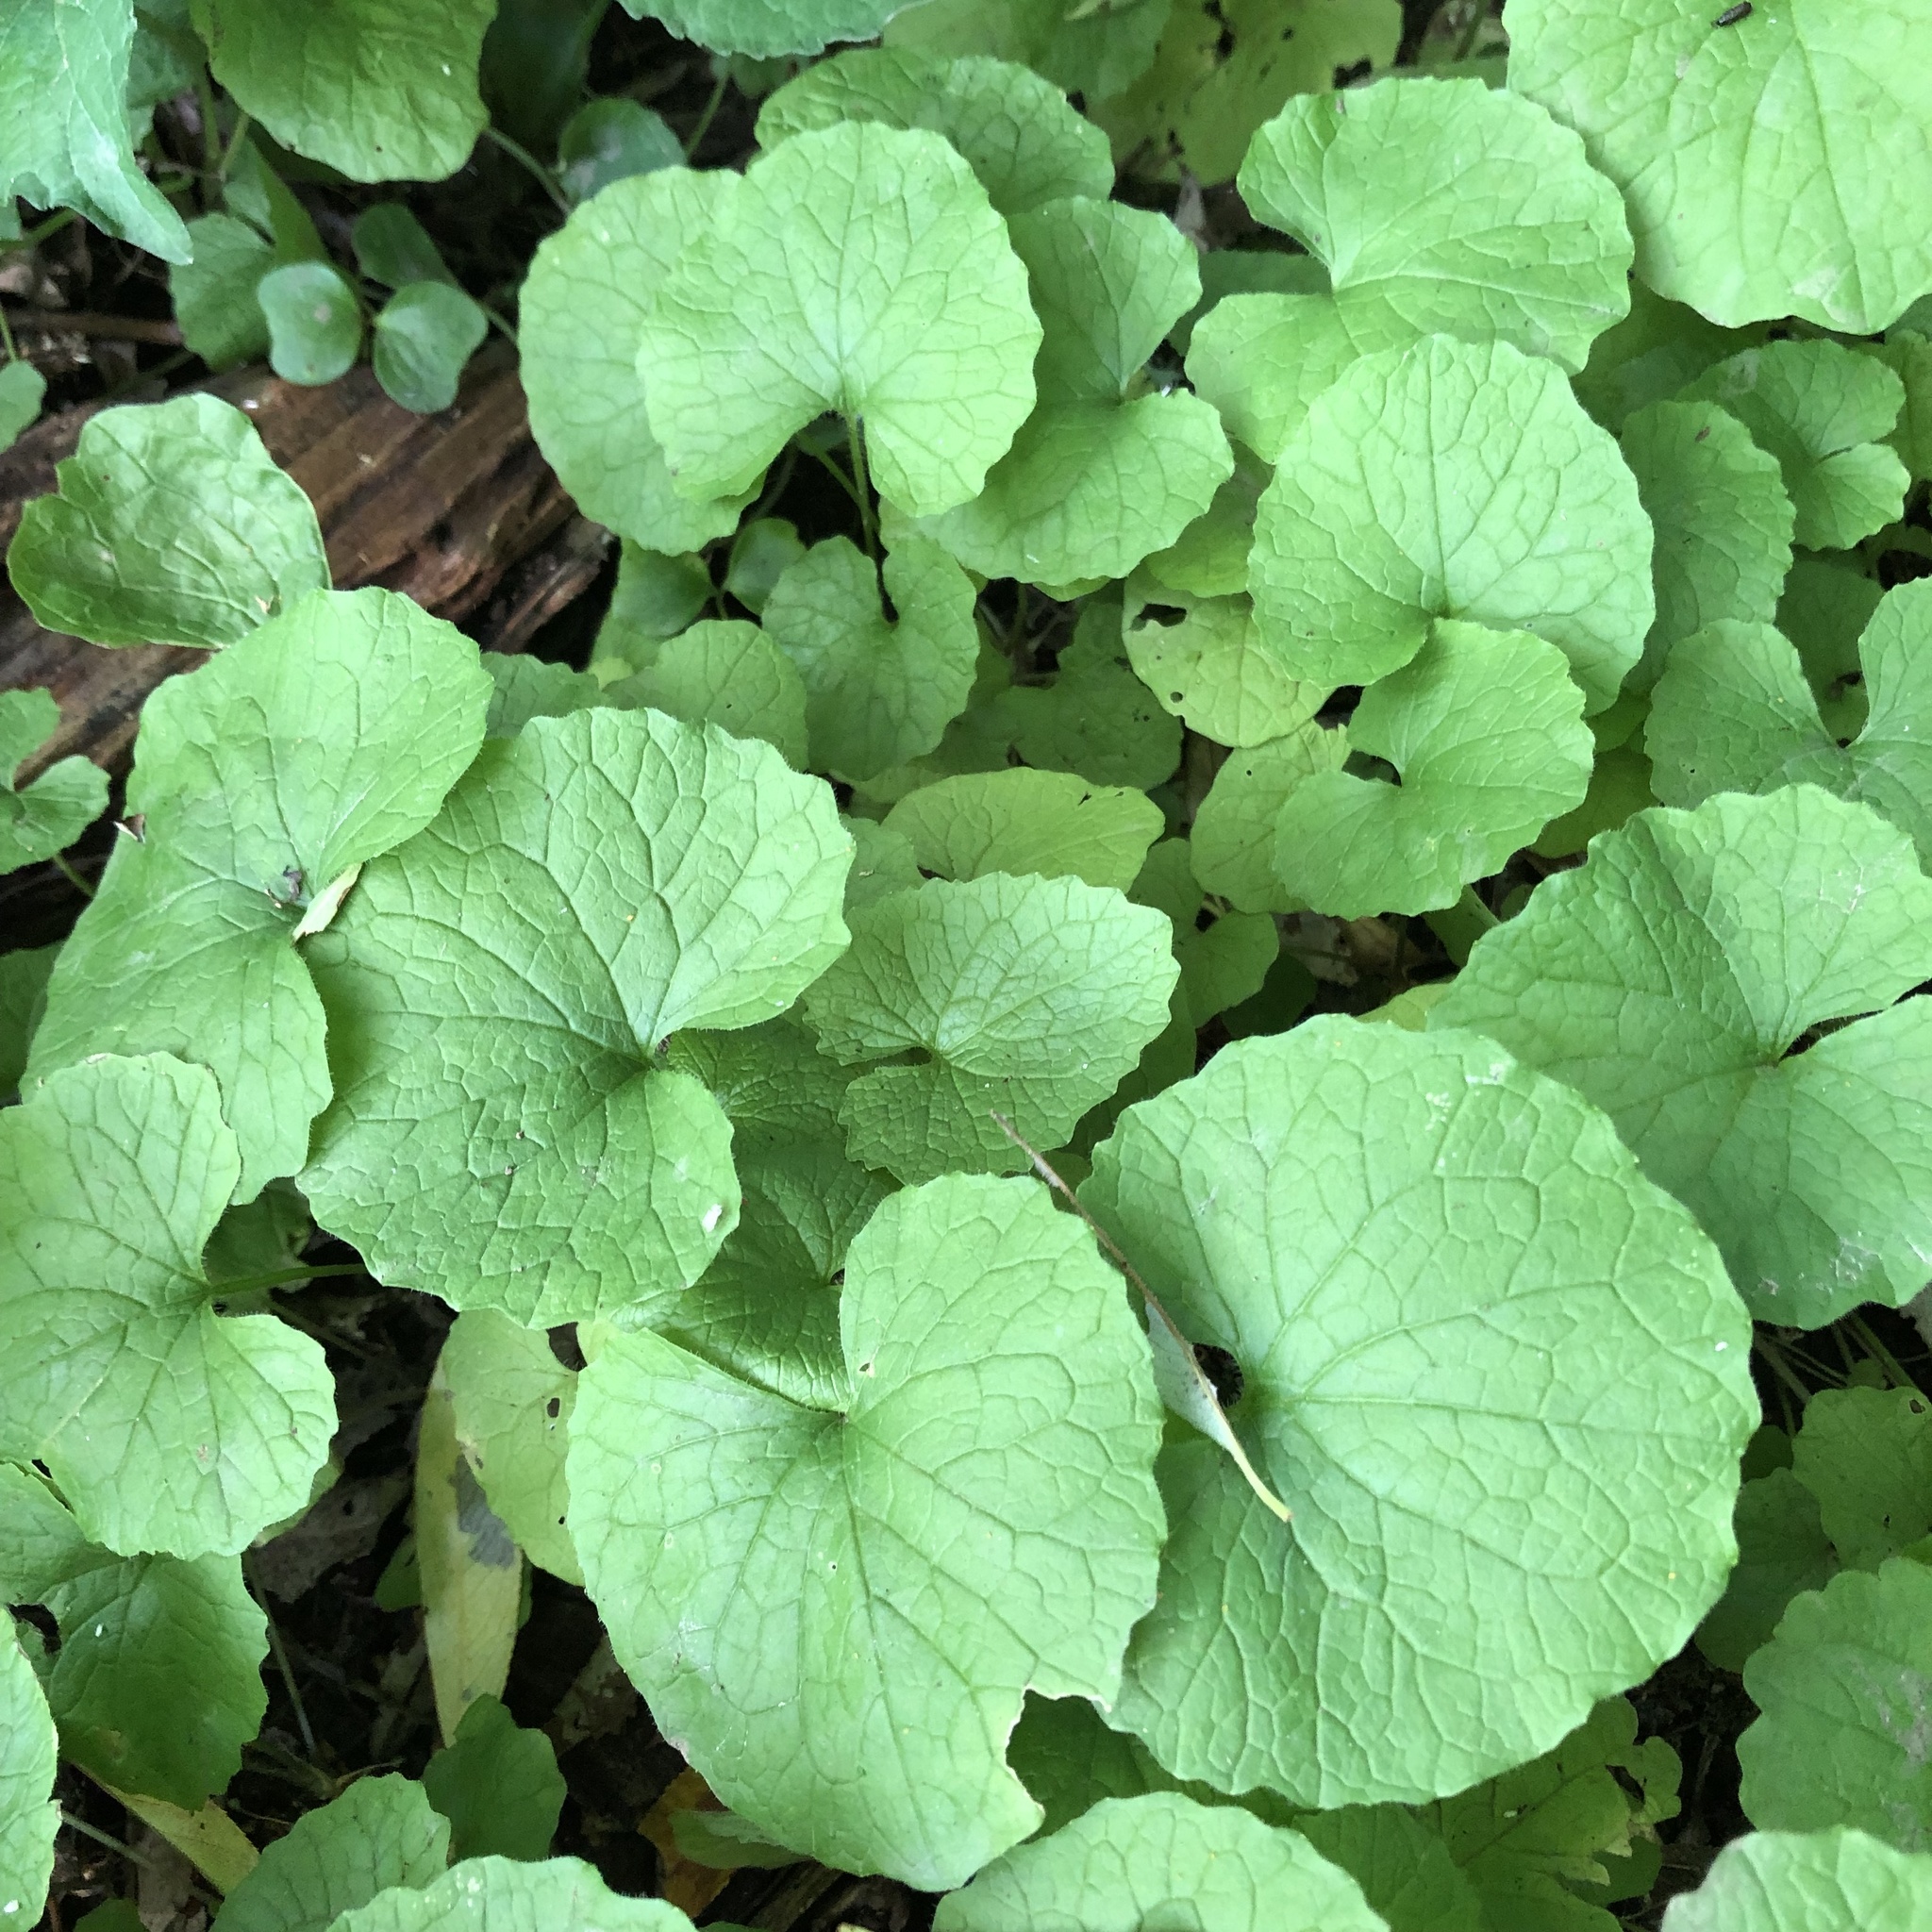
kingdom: Plantae
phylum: Tracheophyta
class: Magnoliopsida
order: Brassicales
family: Brassicaceae
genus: Alliaria
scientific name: Alliaria petiolata
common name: Garlic mustard
